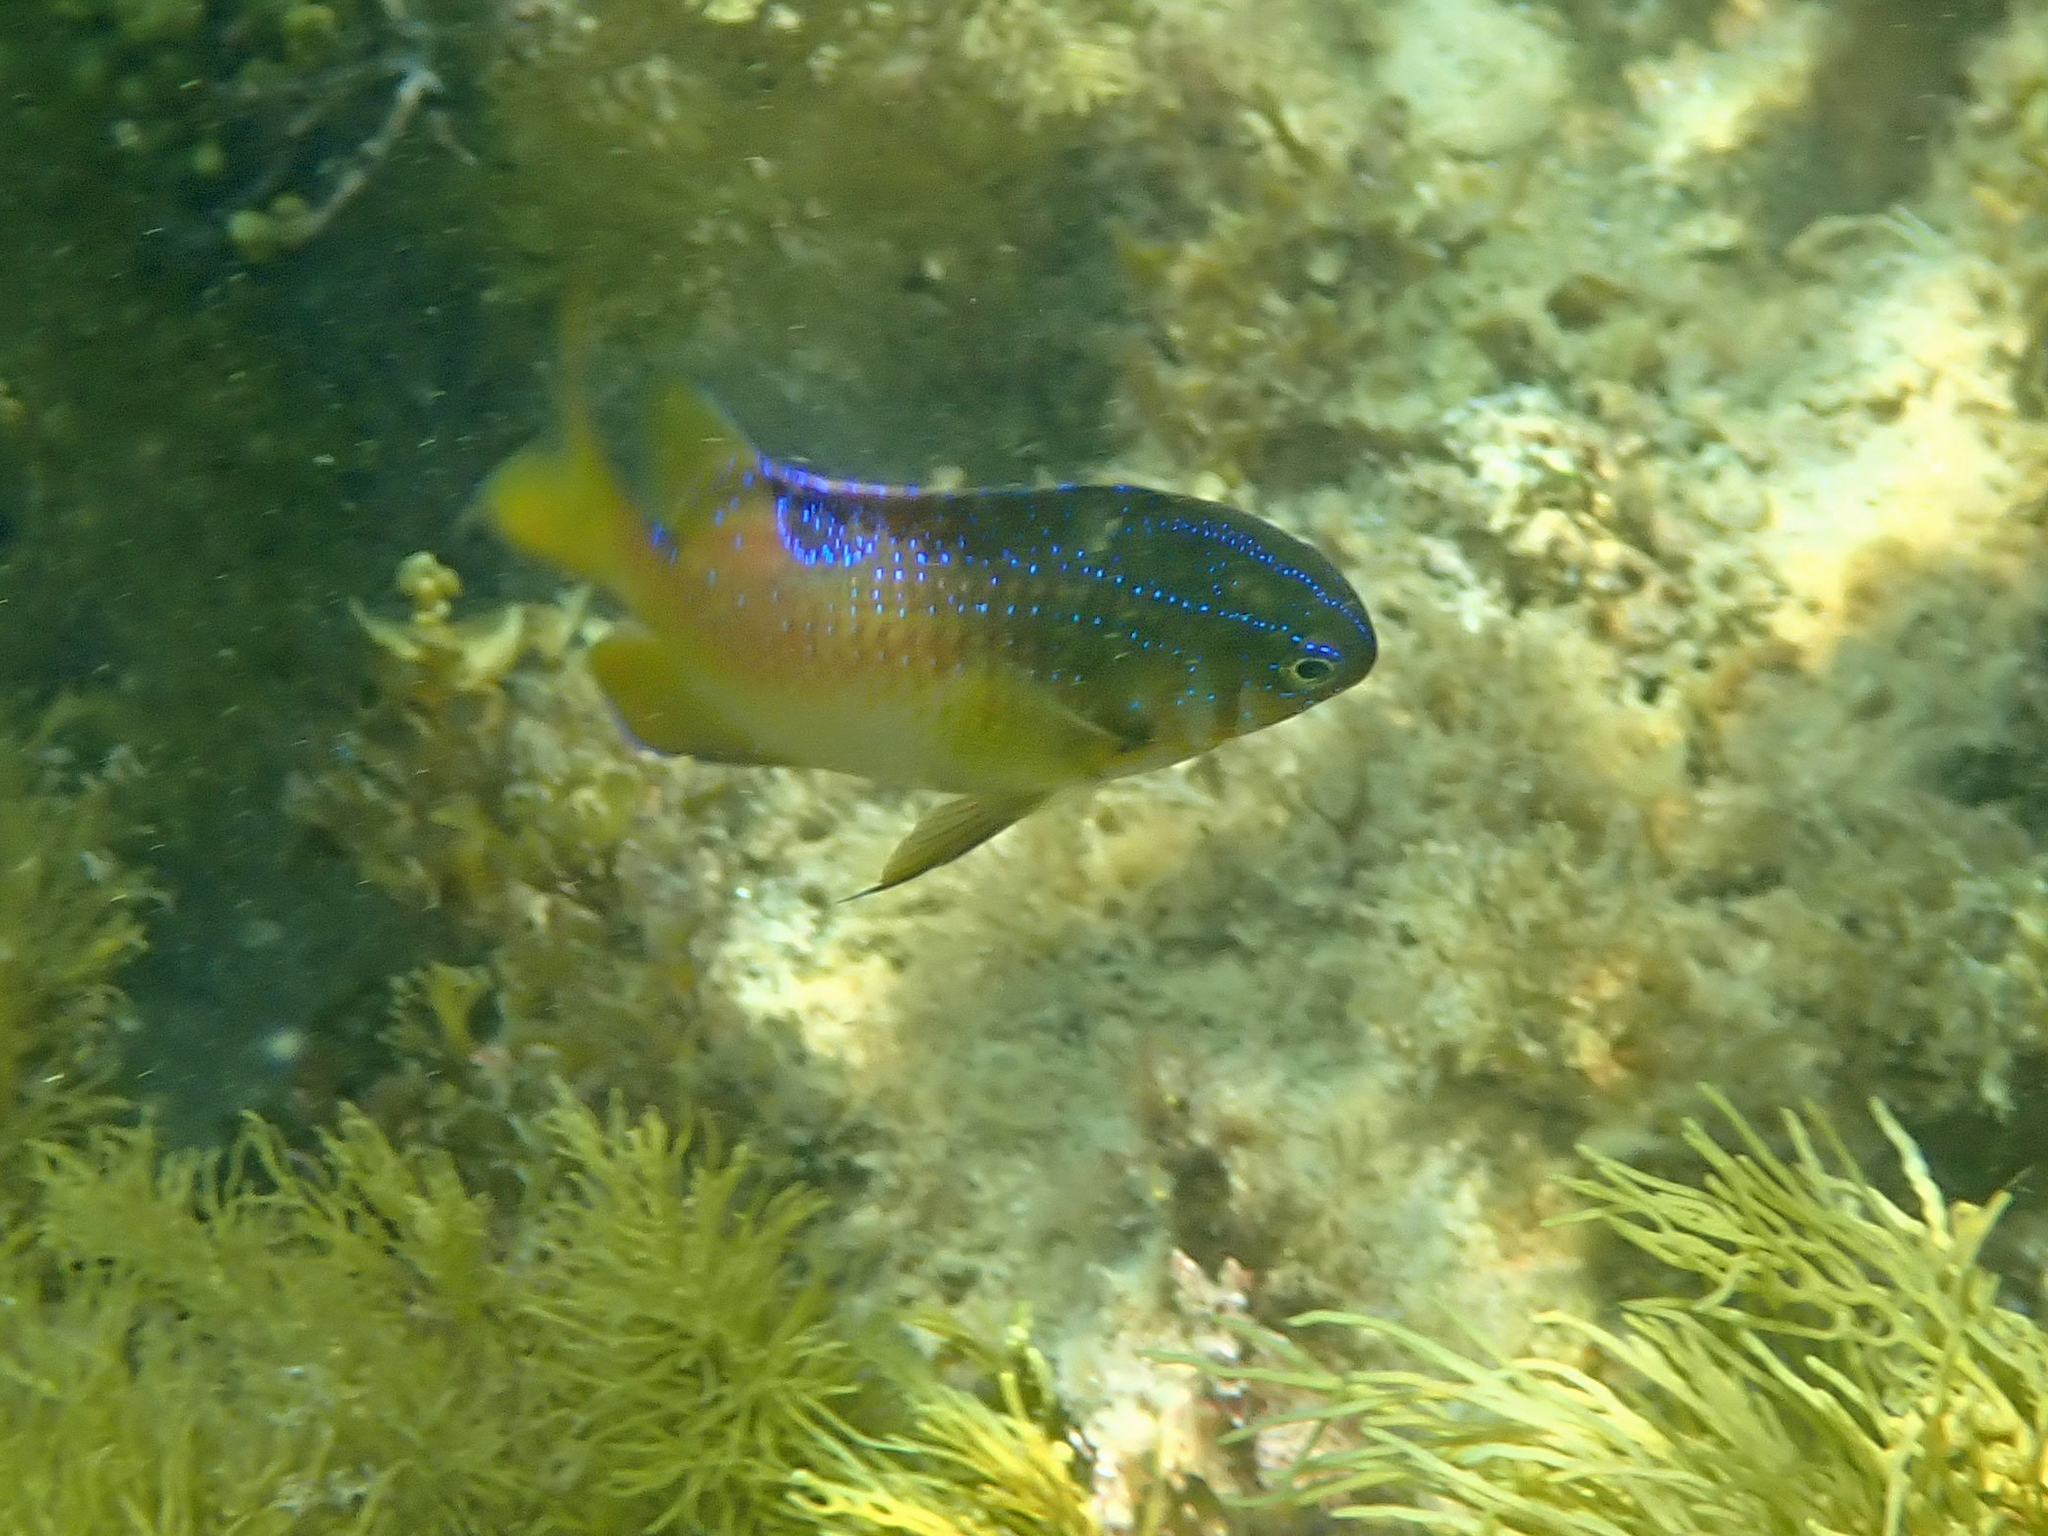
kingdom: Animalia
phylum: Chordata
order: Perciformes
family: Pomacentridae
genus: Parma
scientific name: Parma victoriae
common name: Rock perch
